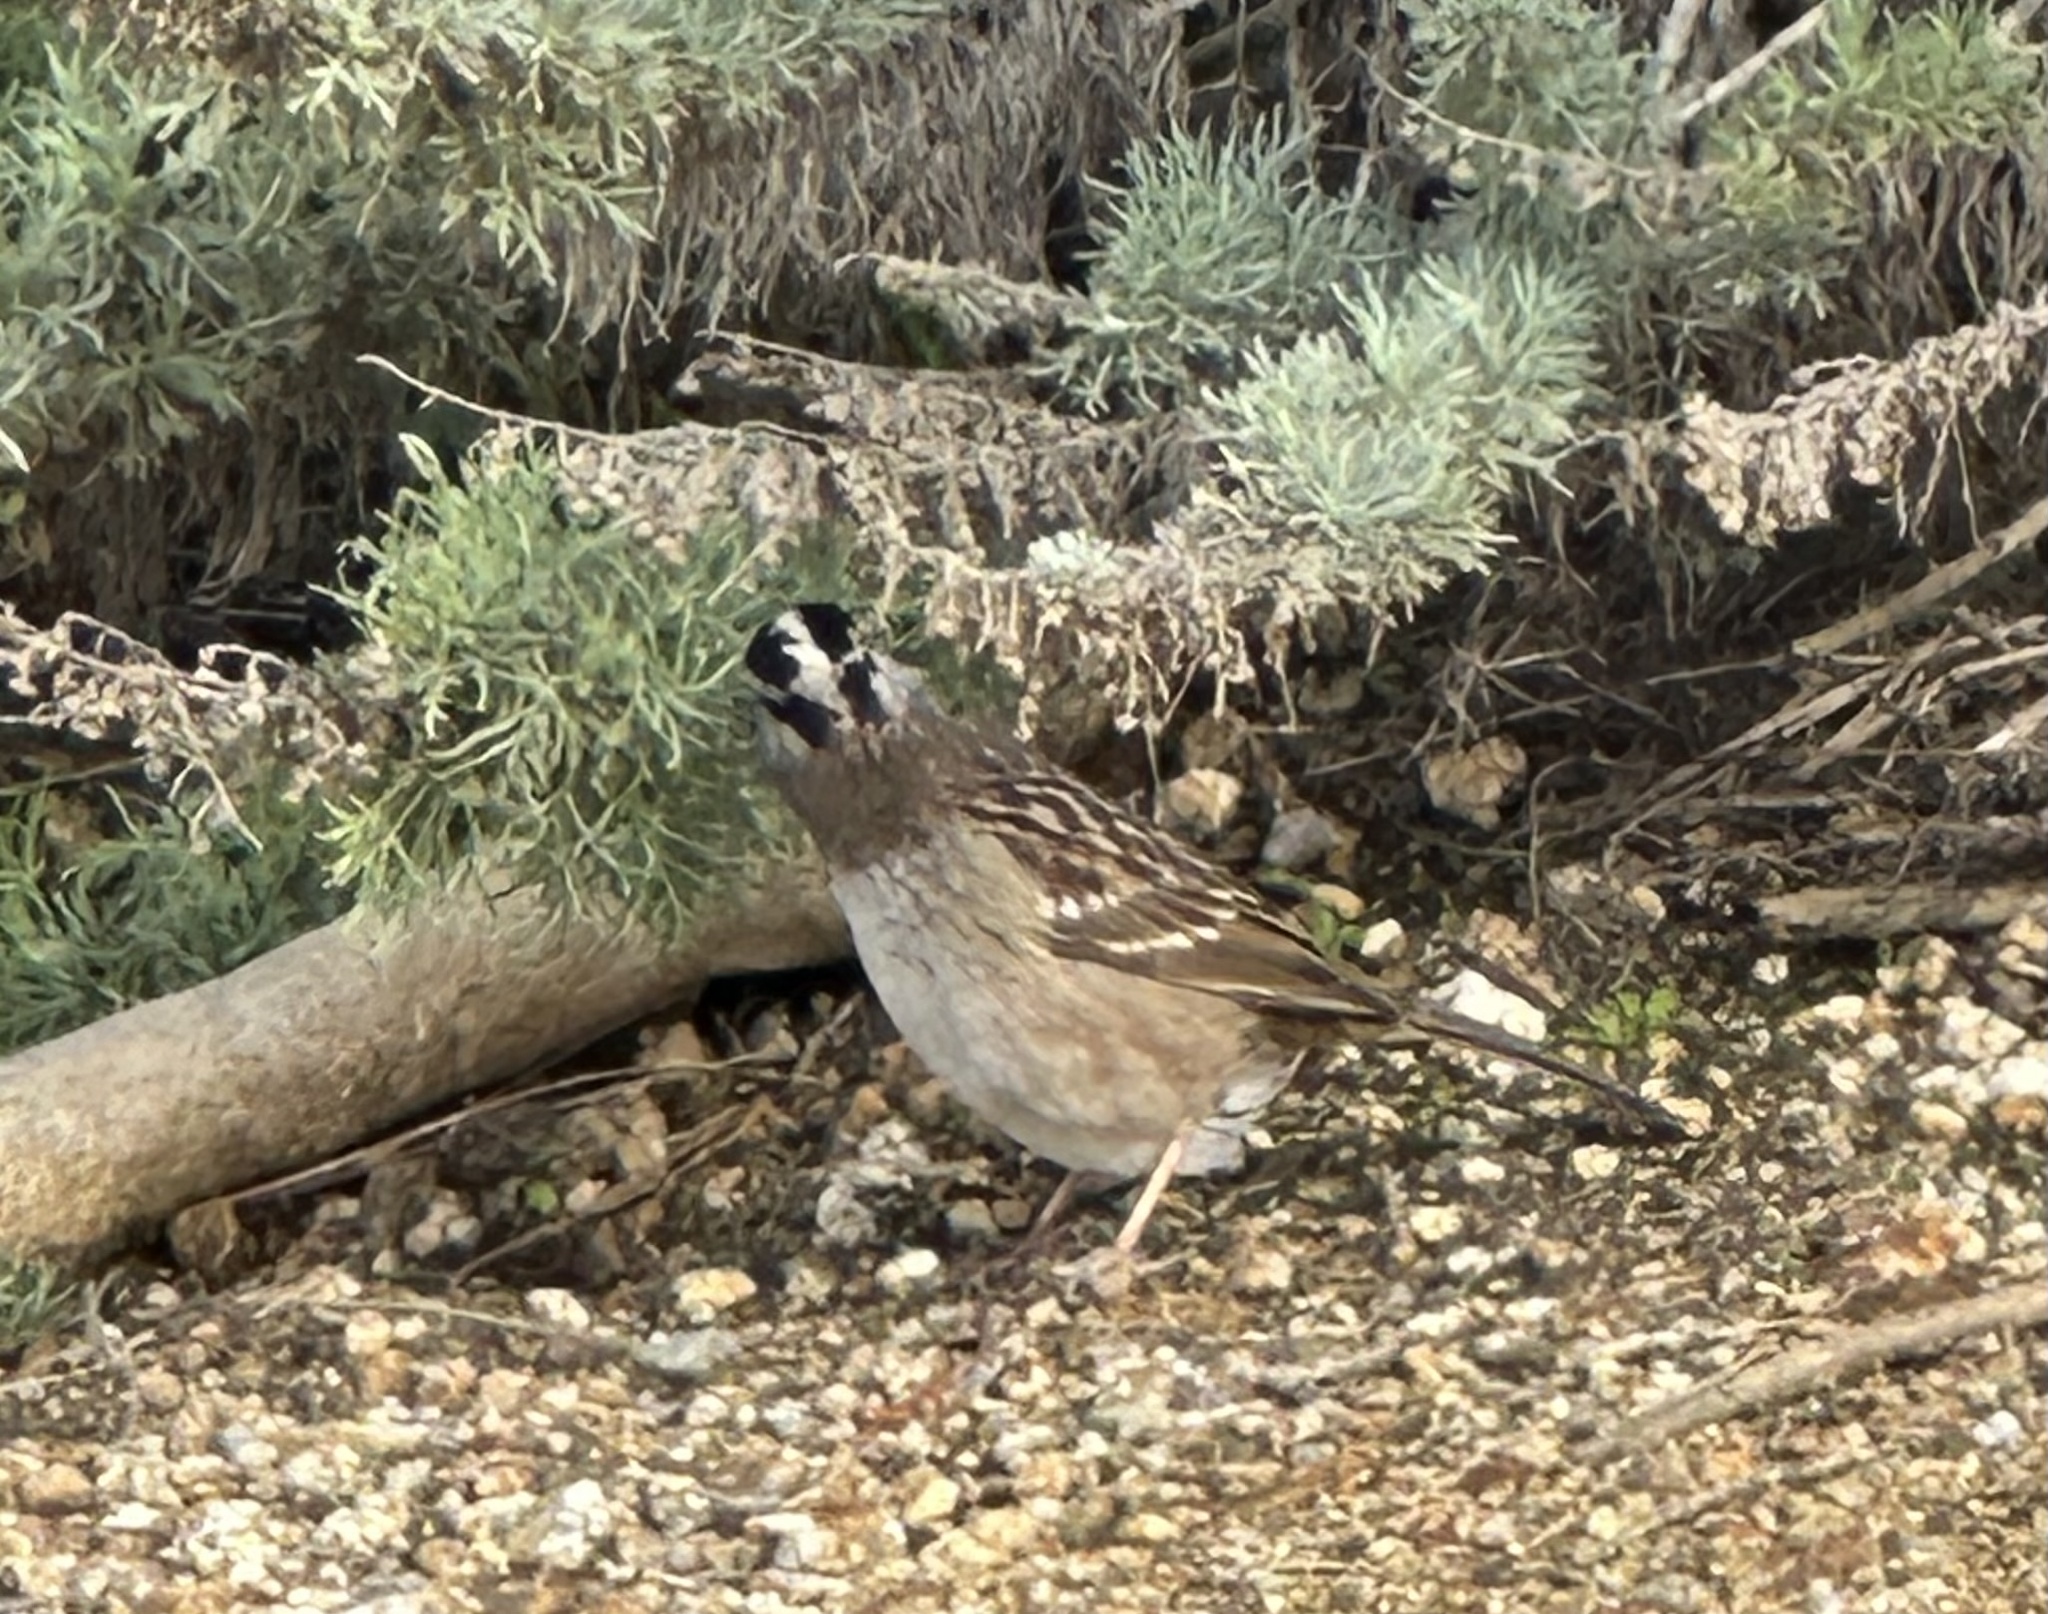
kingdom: Animalia
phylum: Chordata
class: Aves
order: Passeriformes
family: Passerellidae
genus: Zonotrichia
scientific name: Zonotrichia leucophrys
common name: White-crowned sparrow
